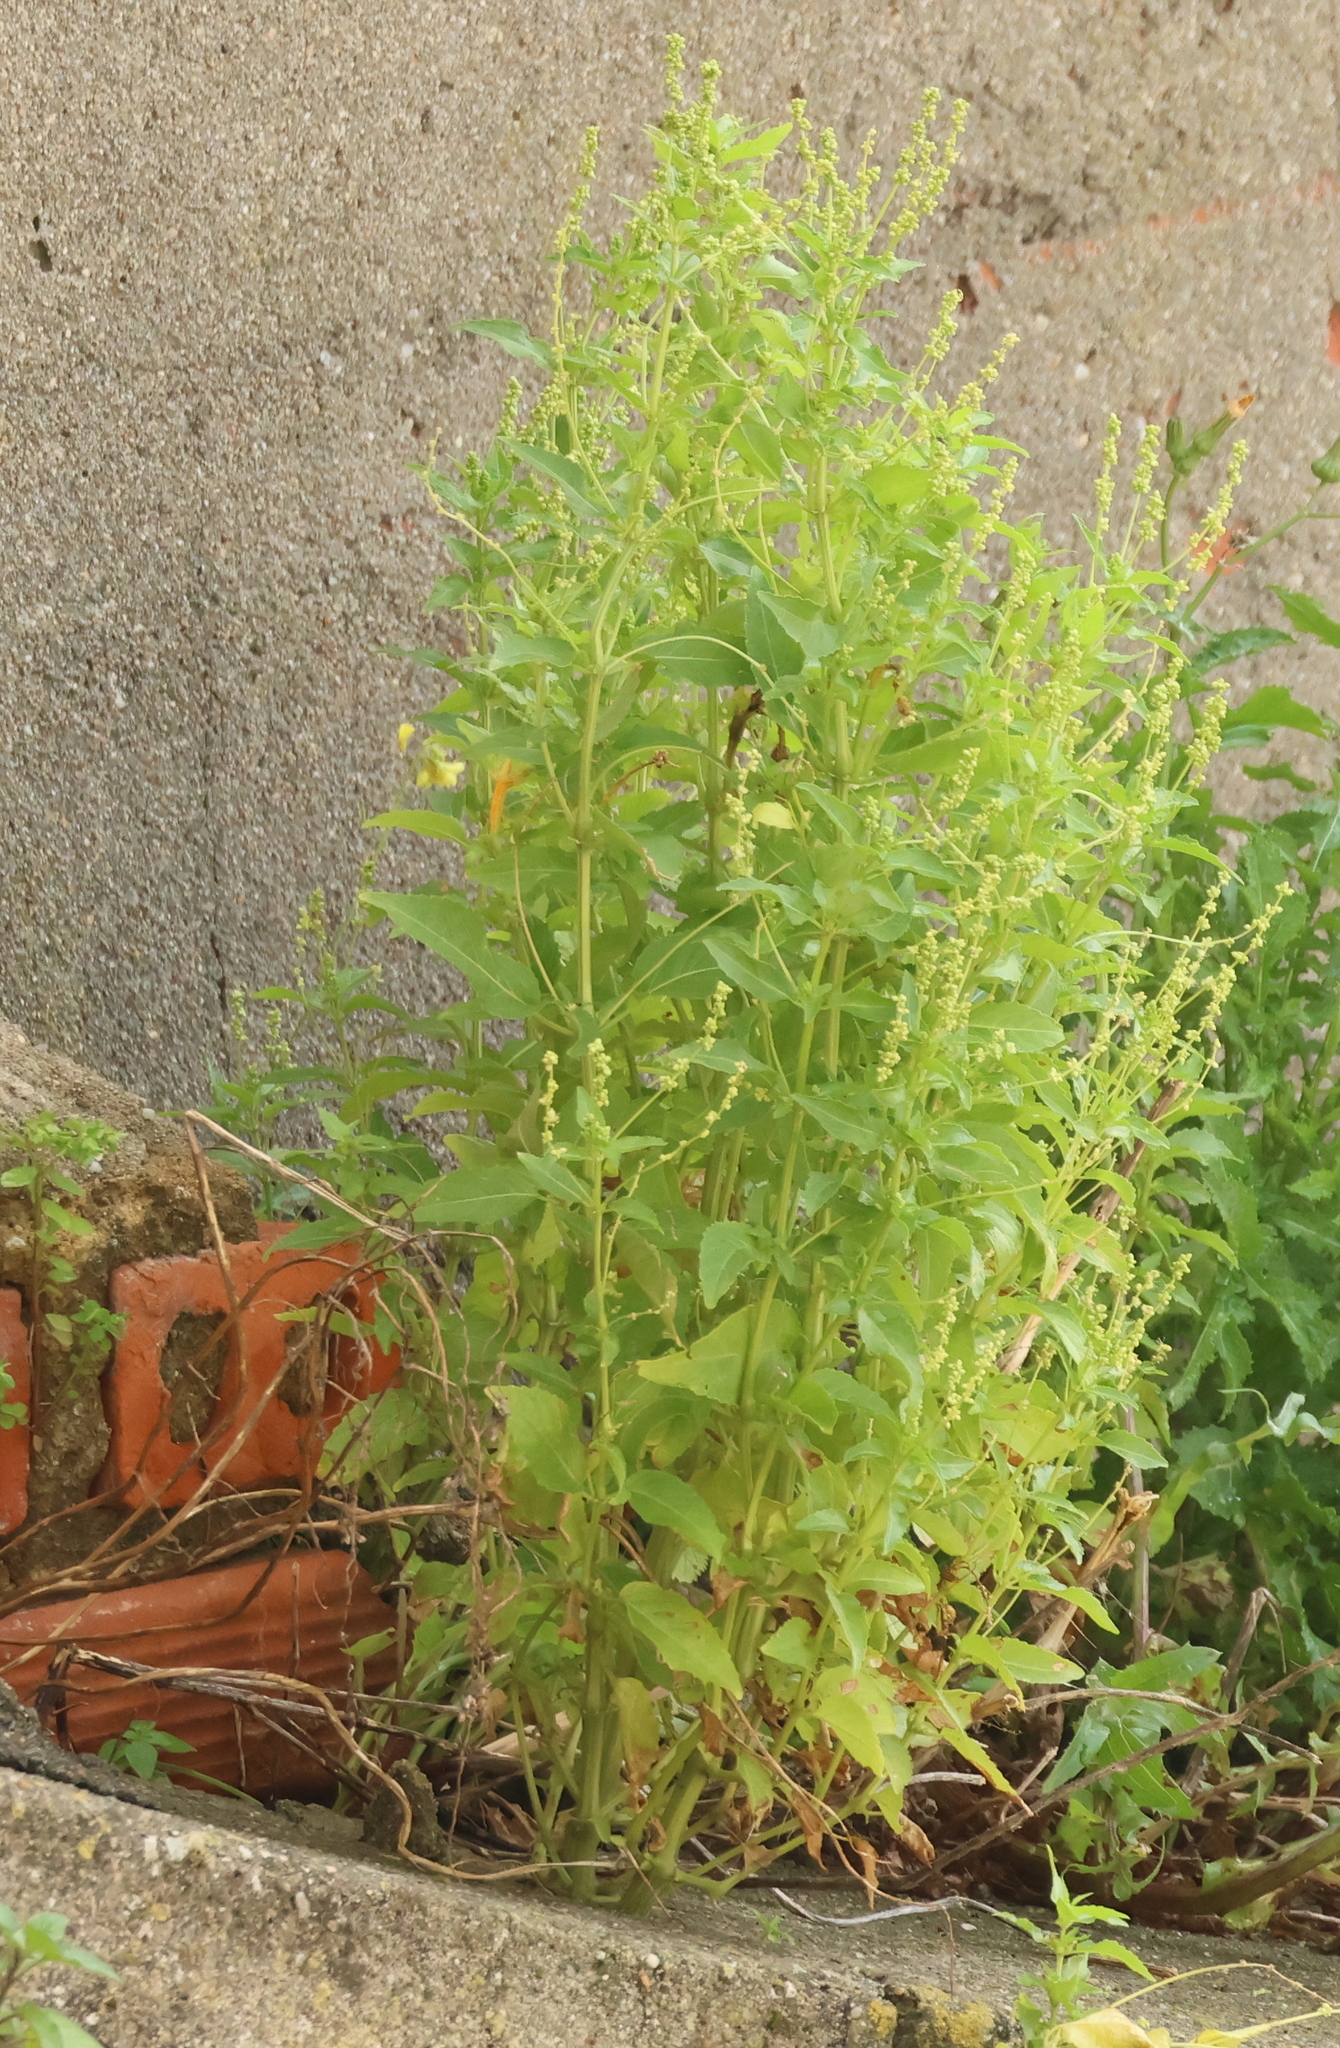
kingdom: Plantae
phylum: Tracheophyta
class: Magnoliopsida
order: Malpighiales
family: Euphorbiaceae
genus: Mercurialis
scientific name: Mercurialis annua
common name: Annual mercury
